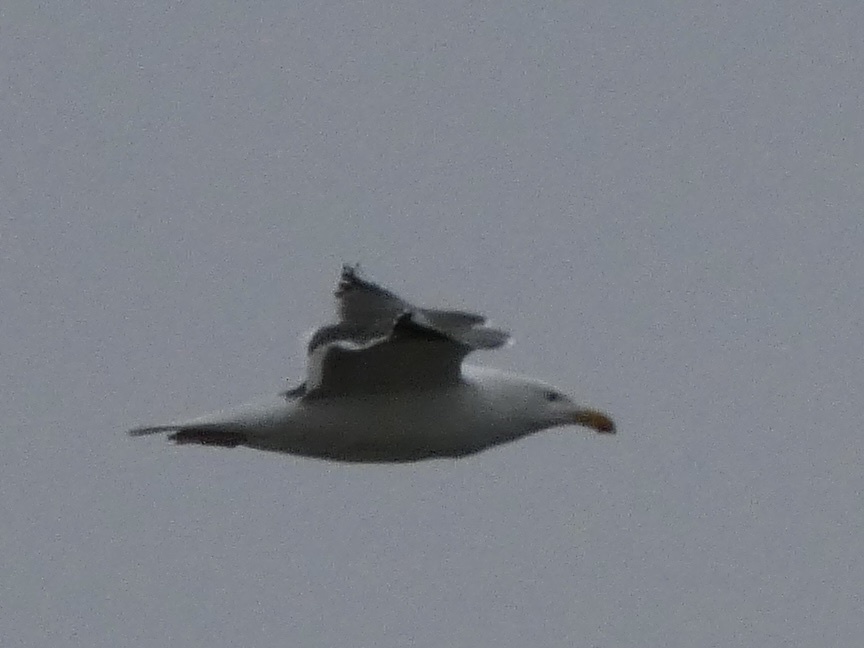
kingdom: Animalia
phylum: Chordata
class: Aves
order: Charadriiformes
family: Laridae
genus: Larus
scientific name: Larus marinus
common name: Great black-backed gull
